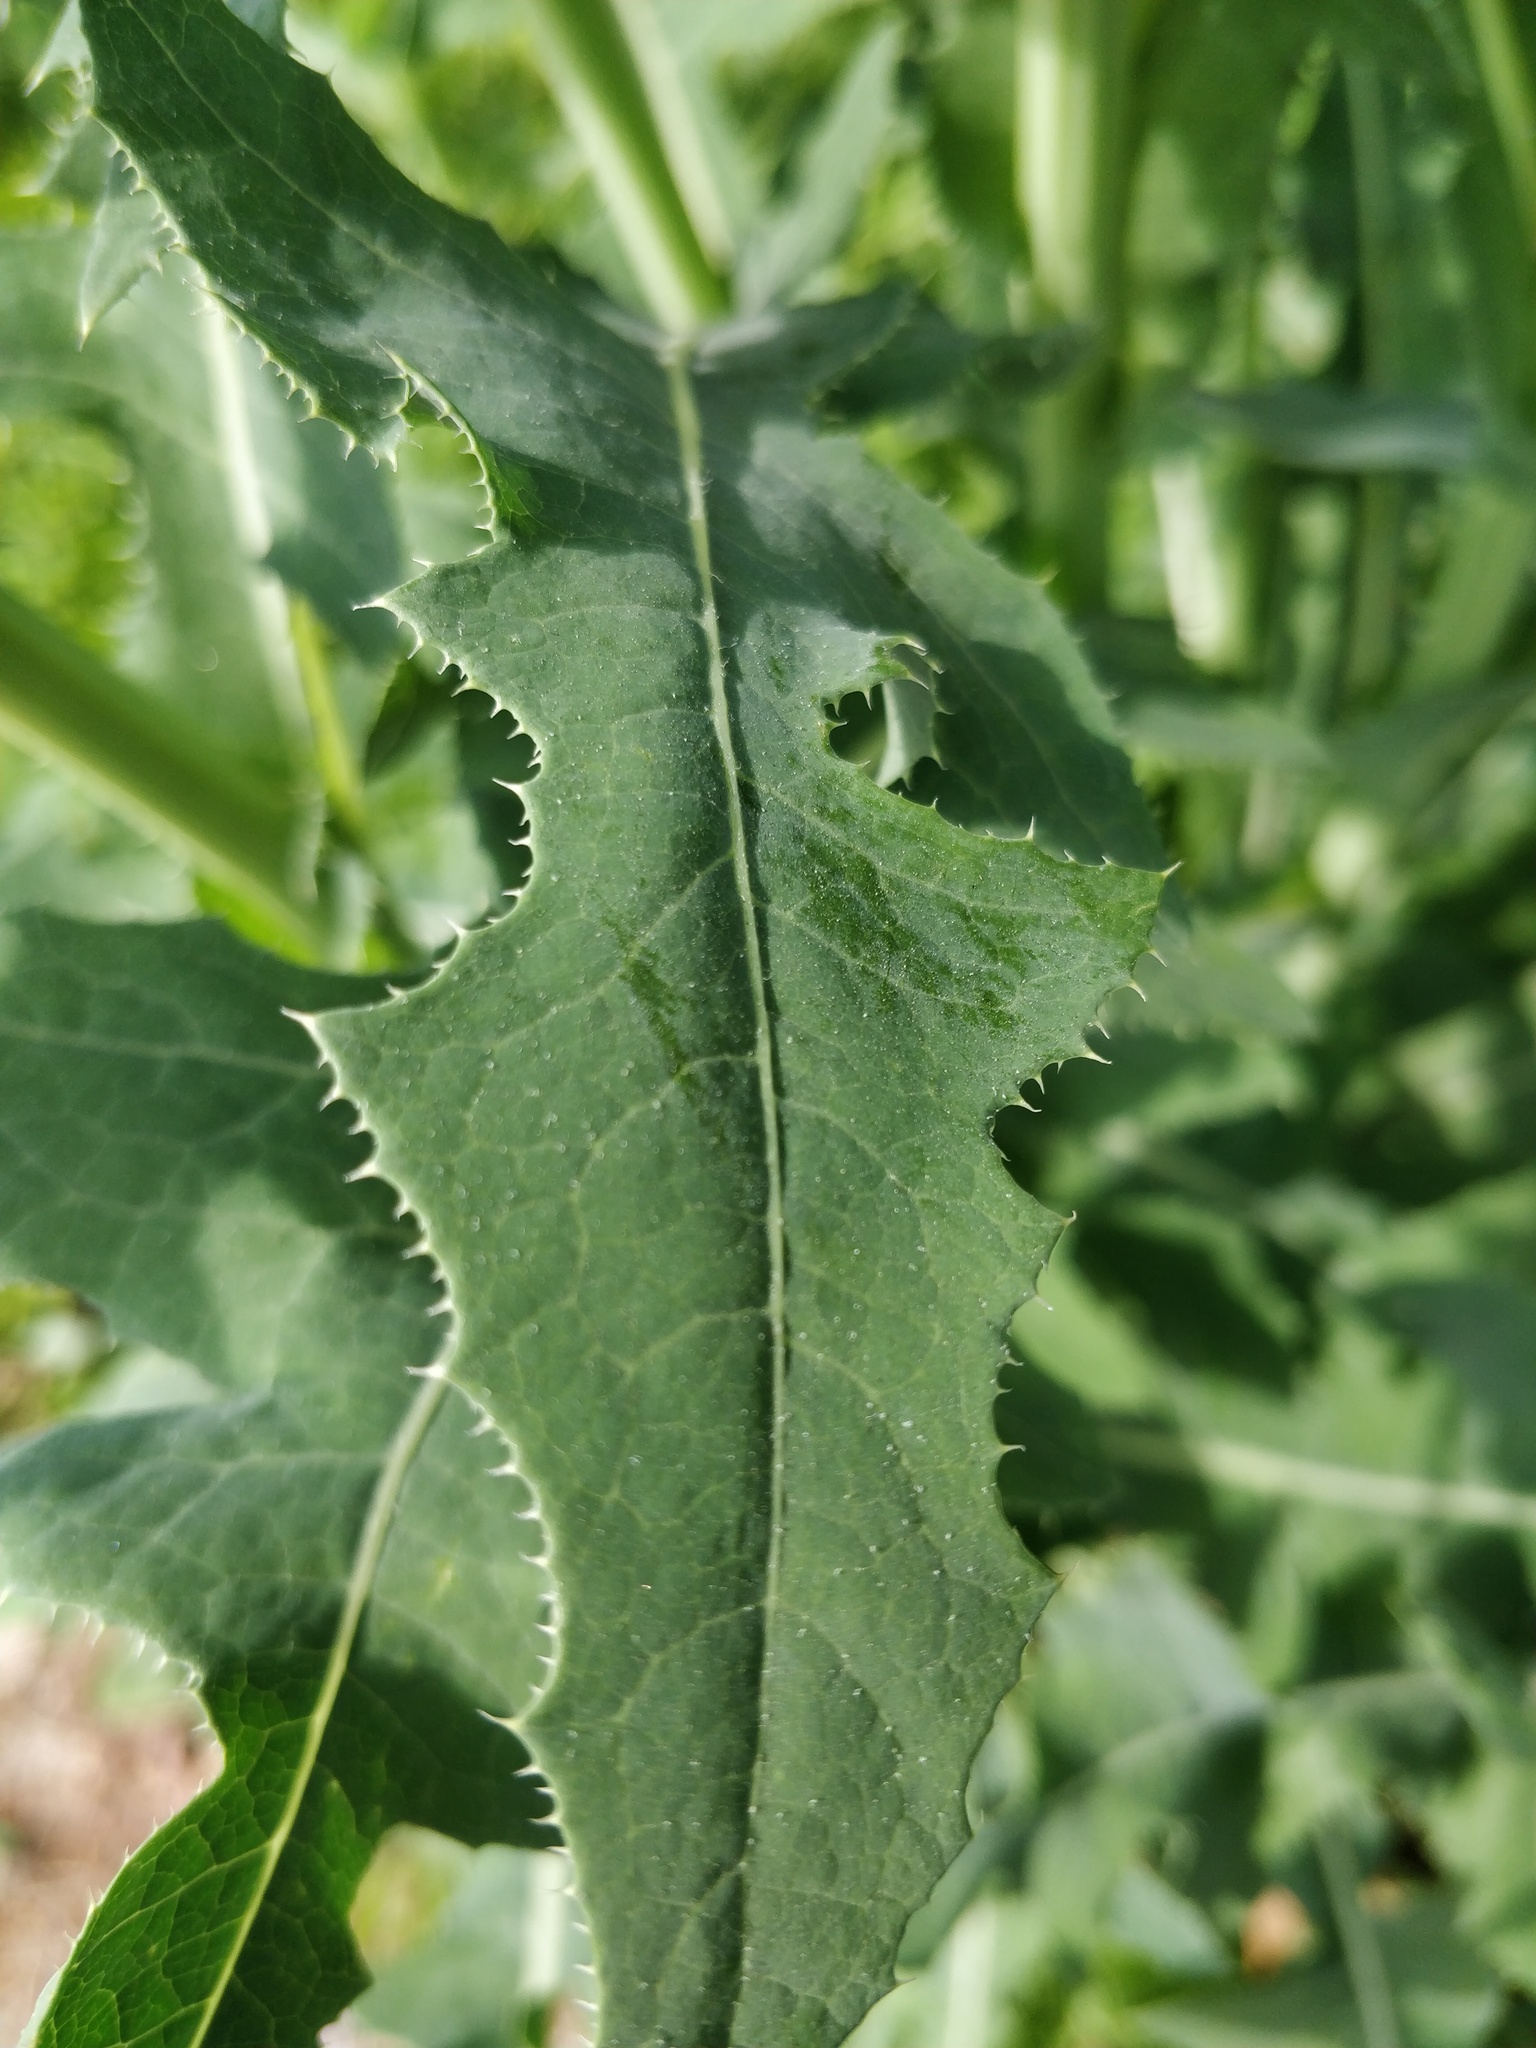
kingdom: Plantae
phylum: Tracheophyta
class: Magnoliopsida
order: Asterales
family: Asteraceae
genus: Sonchus
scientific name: Sonchus arvensis
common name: Perennial sow-thistle
